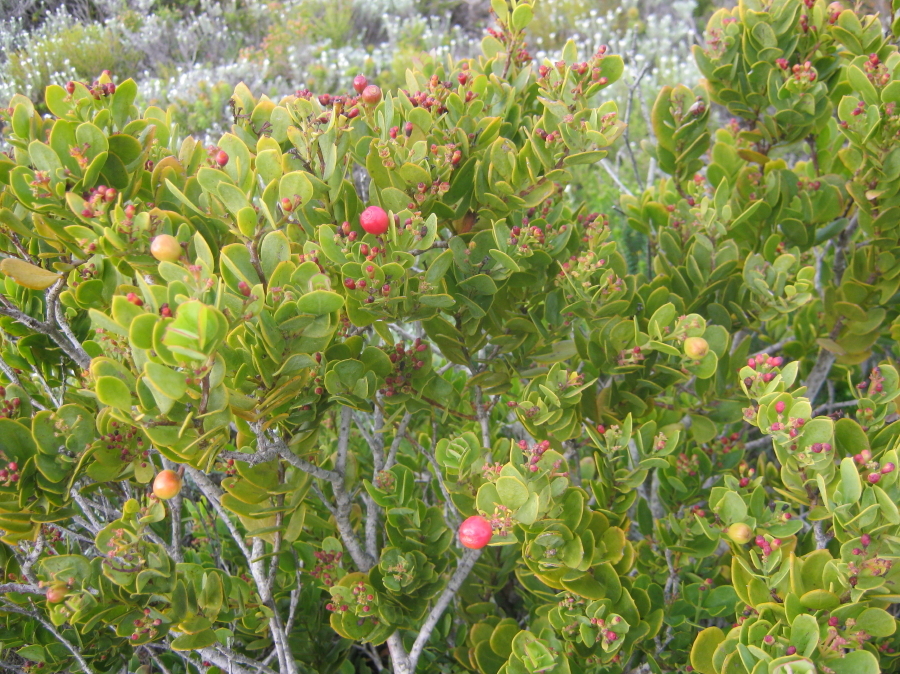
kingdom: Plantae
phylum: Tracheophyta
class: Magnoliopsida
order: Santalales
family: Santalaceae
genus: Osyris
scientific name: Osyris compressa
